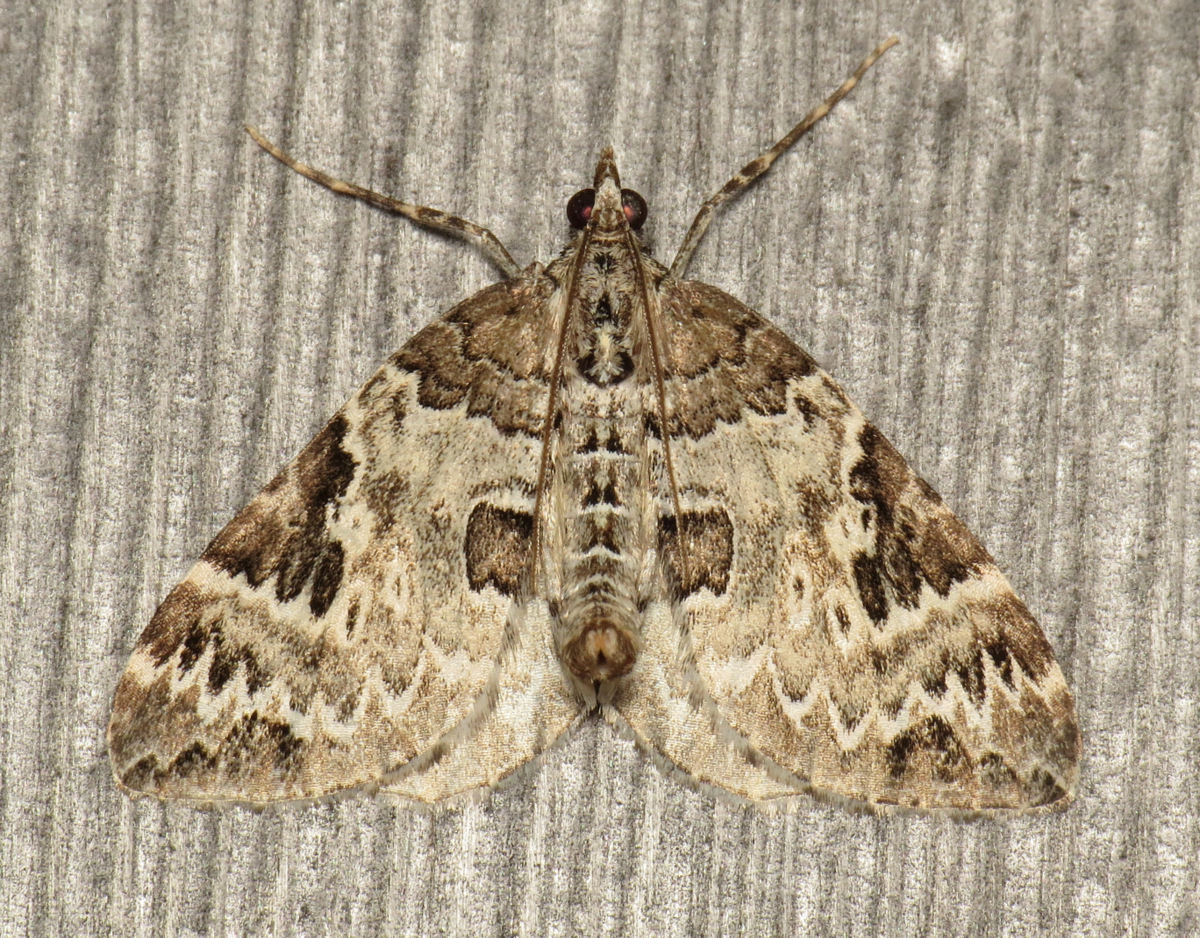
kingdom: Animalia
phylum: Arthropoda
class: Insecta
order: Lepidoptera
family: Geometridae
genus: Eulithis
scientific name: Eulithis explanata
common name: White eulithis
